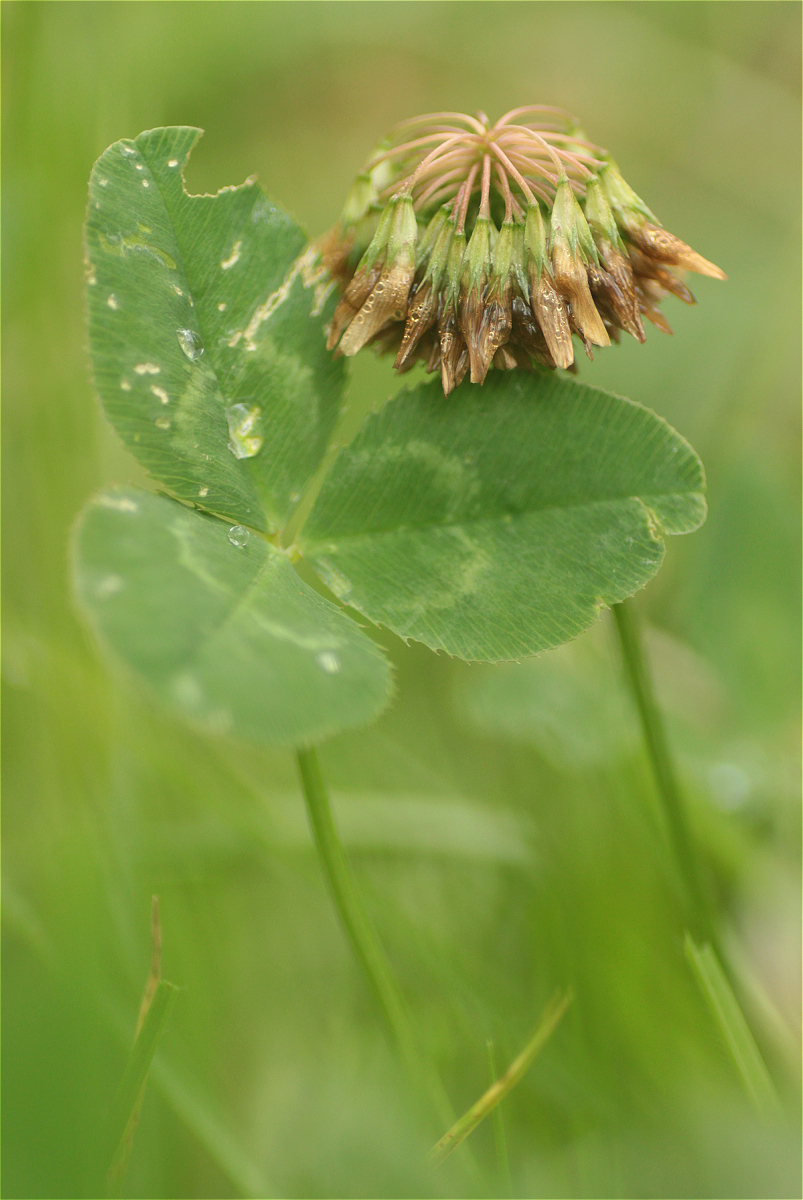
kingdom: Plantae
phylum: Tracheophyta
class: Magnoliopsida
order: Fabales
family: Fabaceae
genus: Trifolium
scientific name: Trifolium repens
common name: White clover
